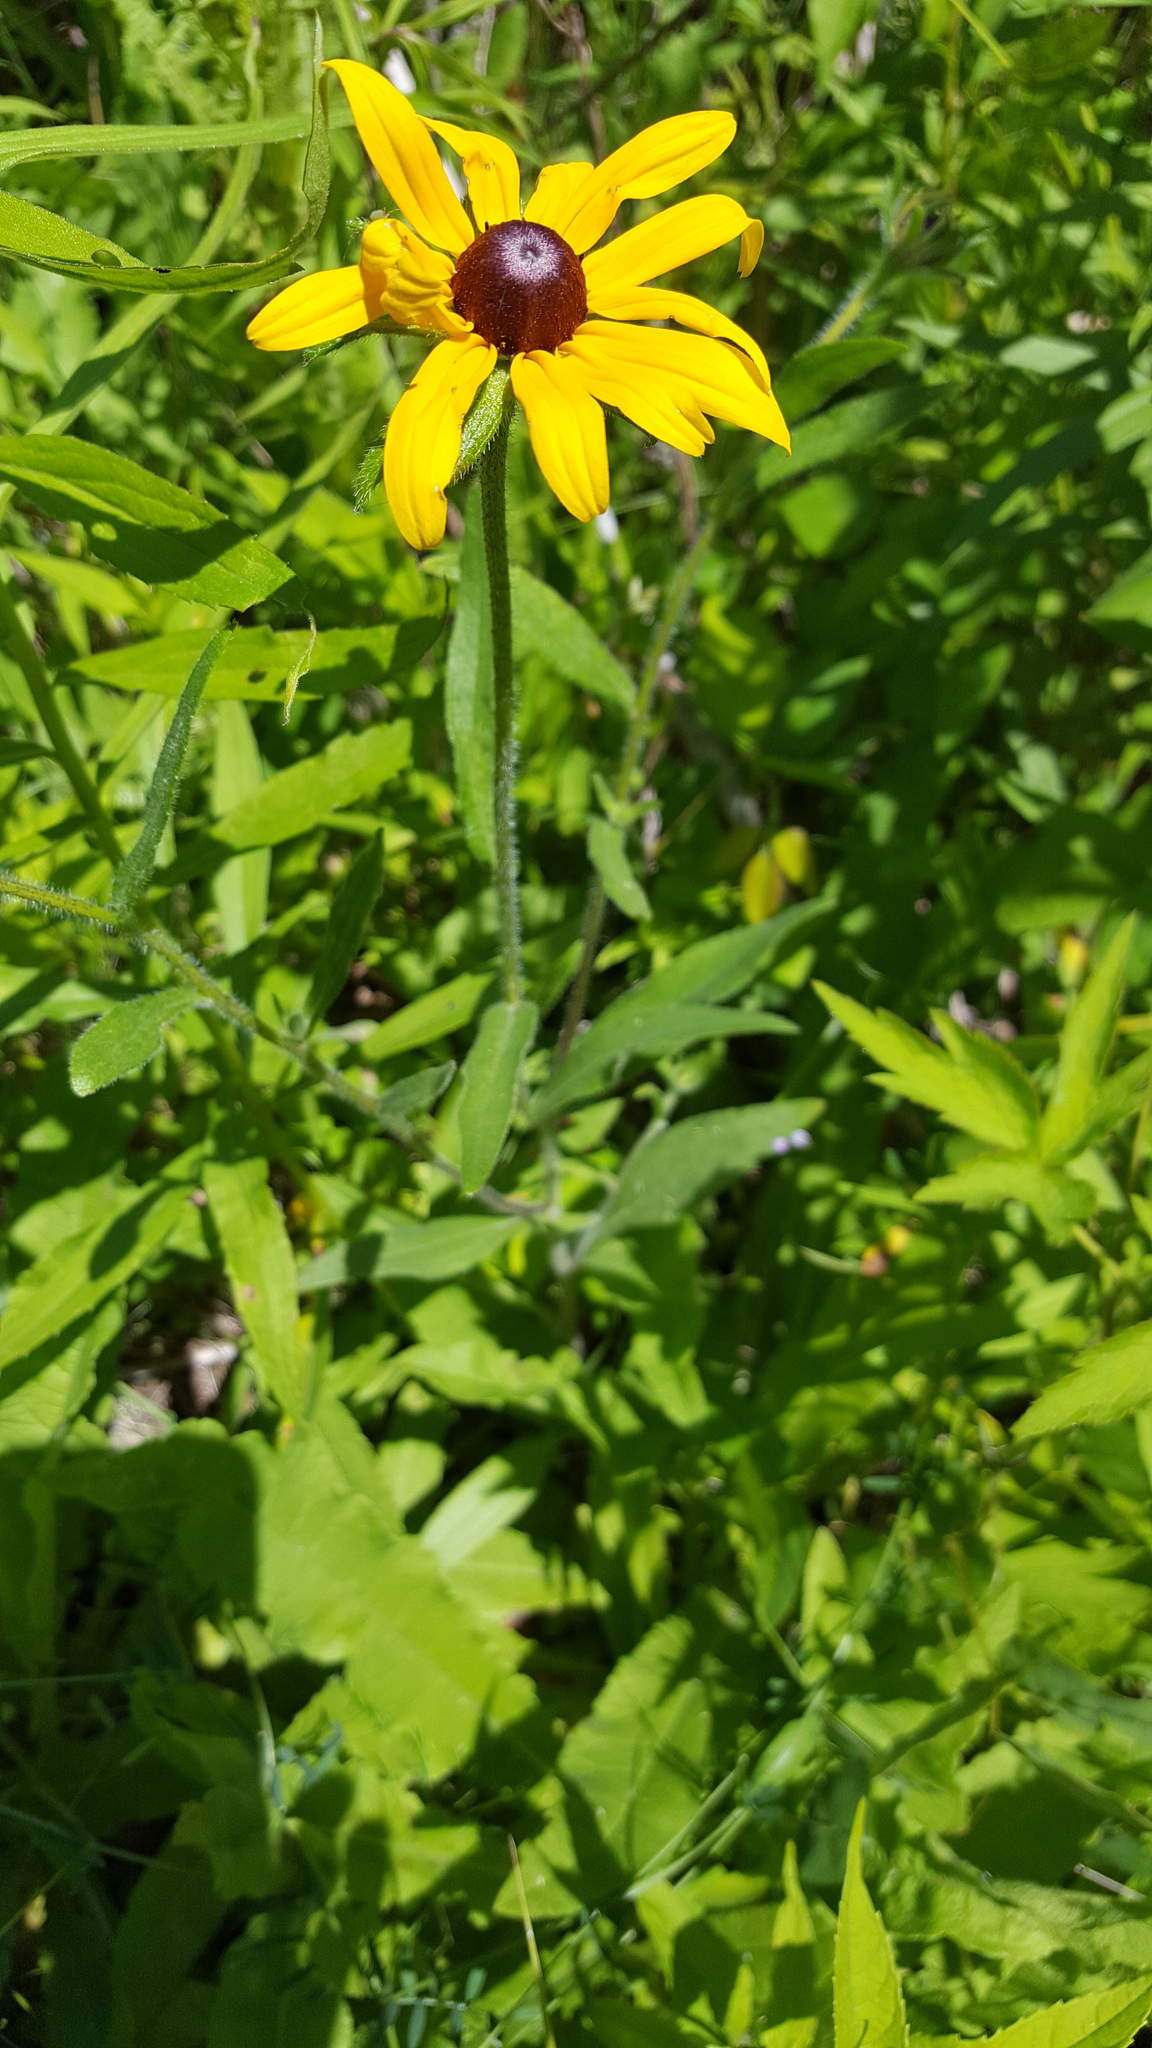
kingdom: Plantae
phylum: Tracheophyta
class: Magnoliopsida
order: Asterales
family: Asteraceae
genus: Rudbeckia
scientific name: Rudbeckia hirta
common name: Black-eyed-susan
